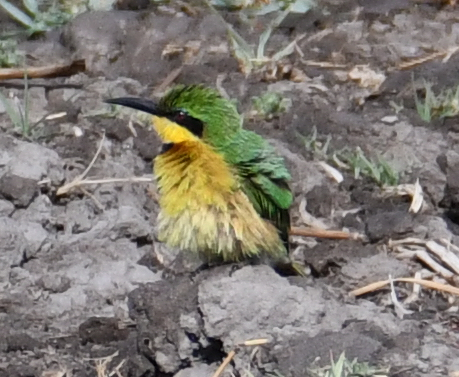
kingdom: Animalia
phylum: Chordata
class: Aves
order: Coraciiformes
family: Meropidae
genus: Merops
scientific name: Merops pusillus
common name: Little bee-eater
